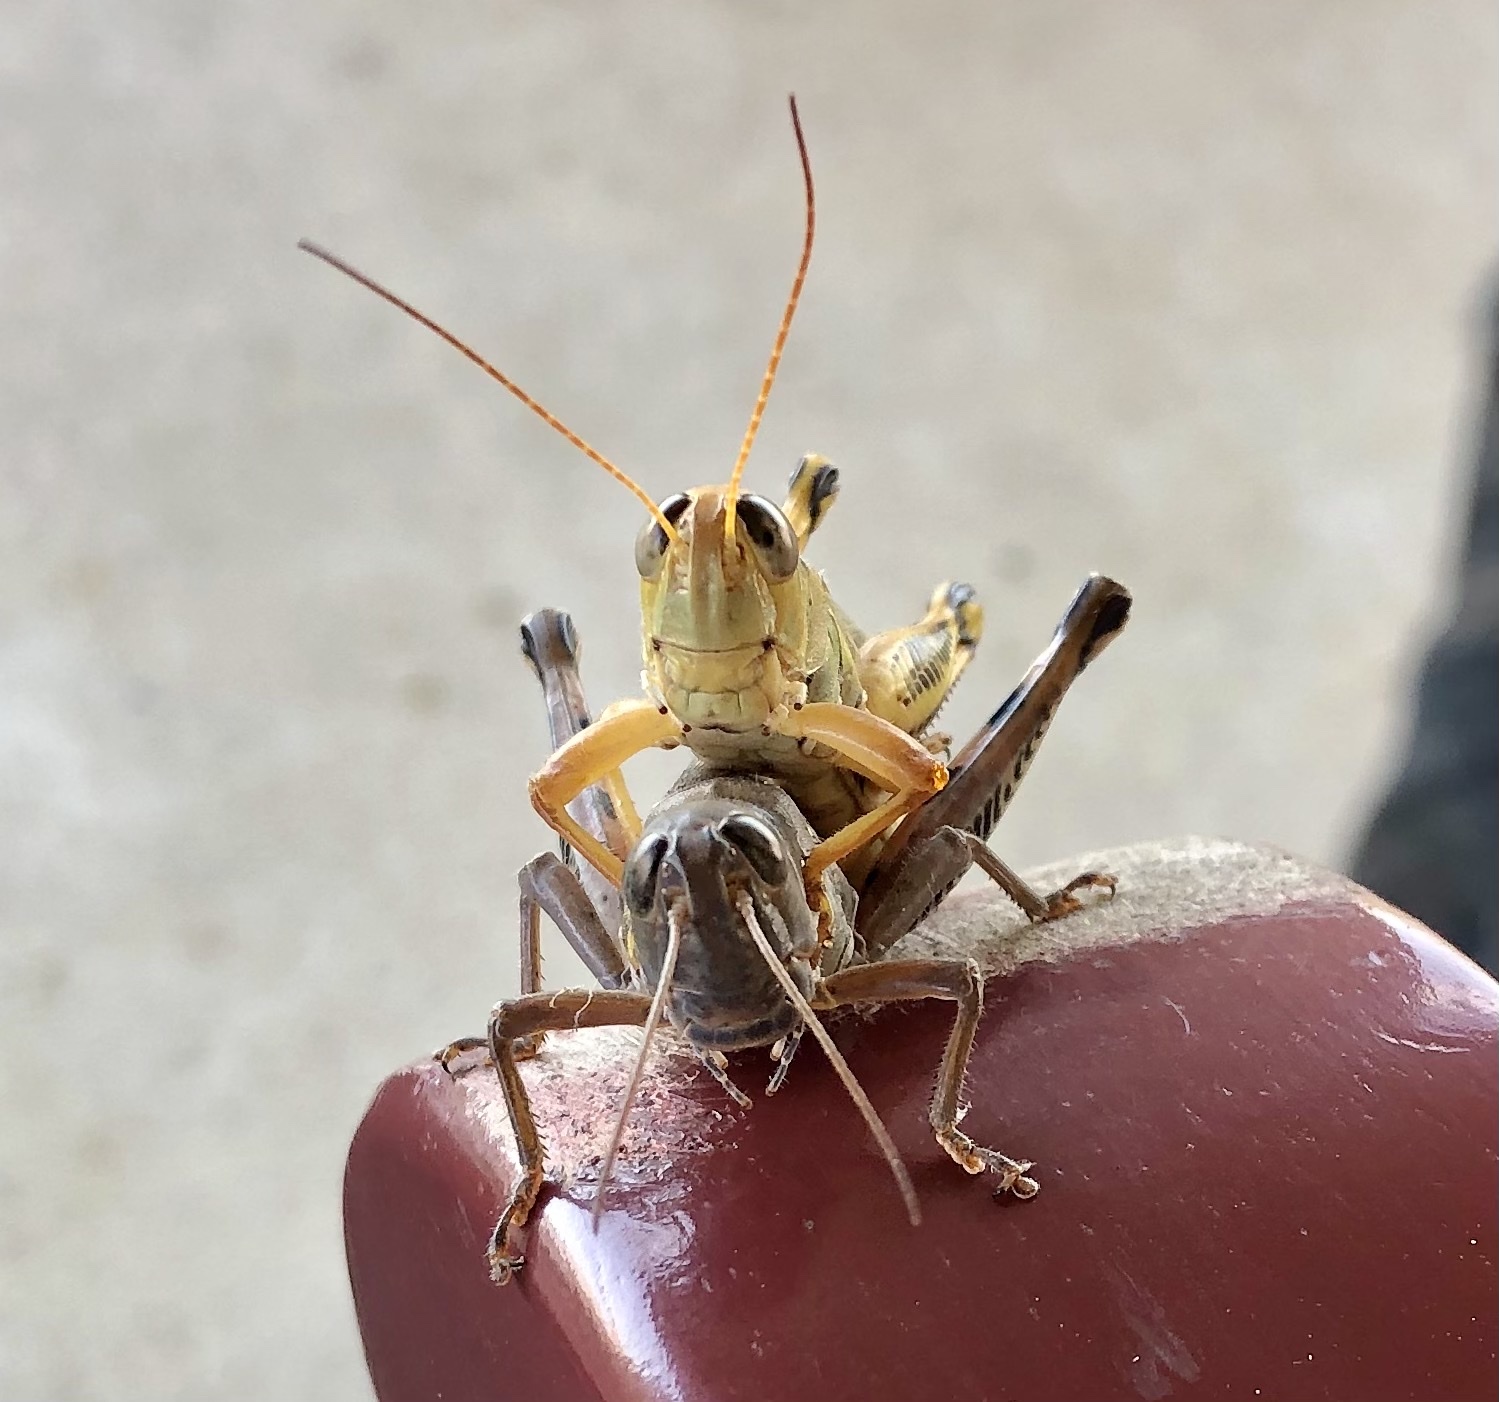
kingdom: Animalia
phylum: Arthropoda
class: Insecta
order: Orthoptera
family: Acrididae
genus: Melanoplus
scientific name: Melanoplus differentialis
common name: Differential grasshopper
